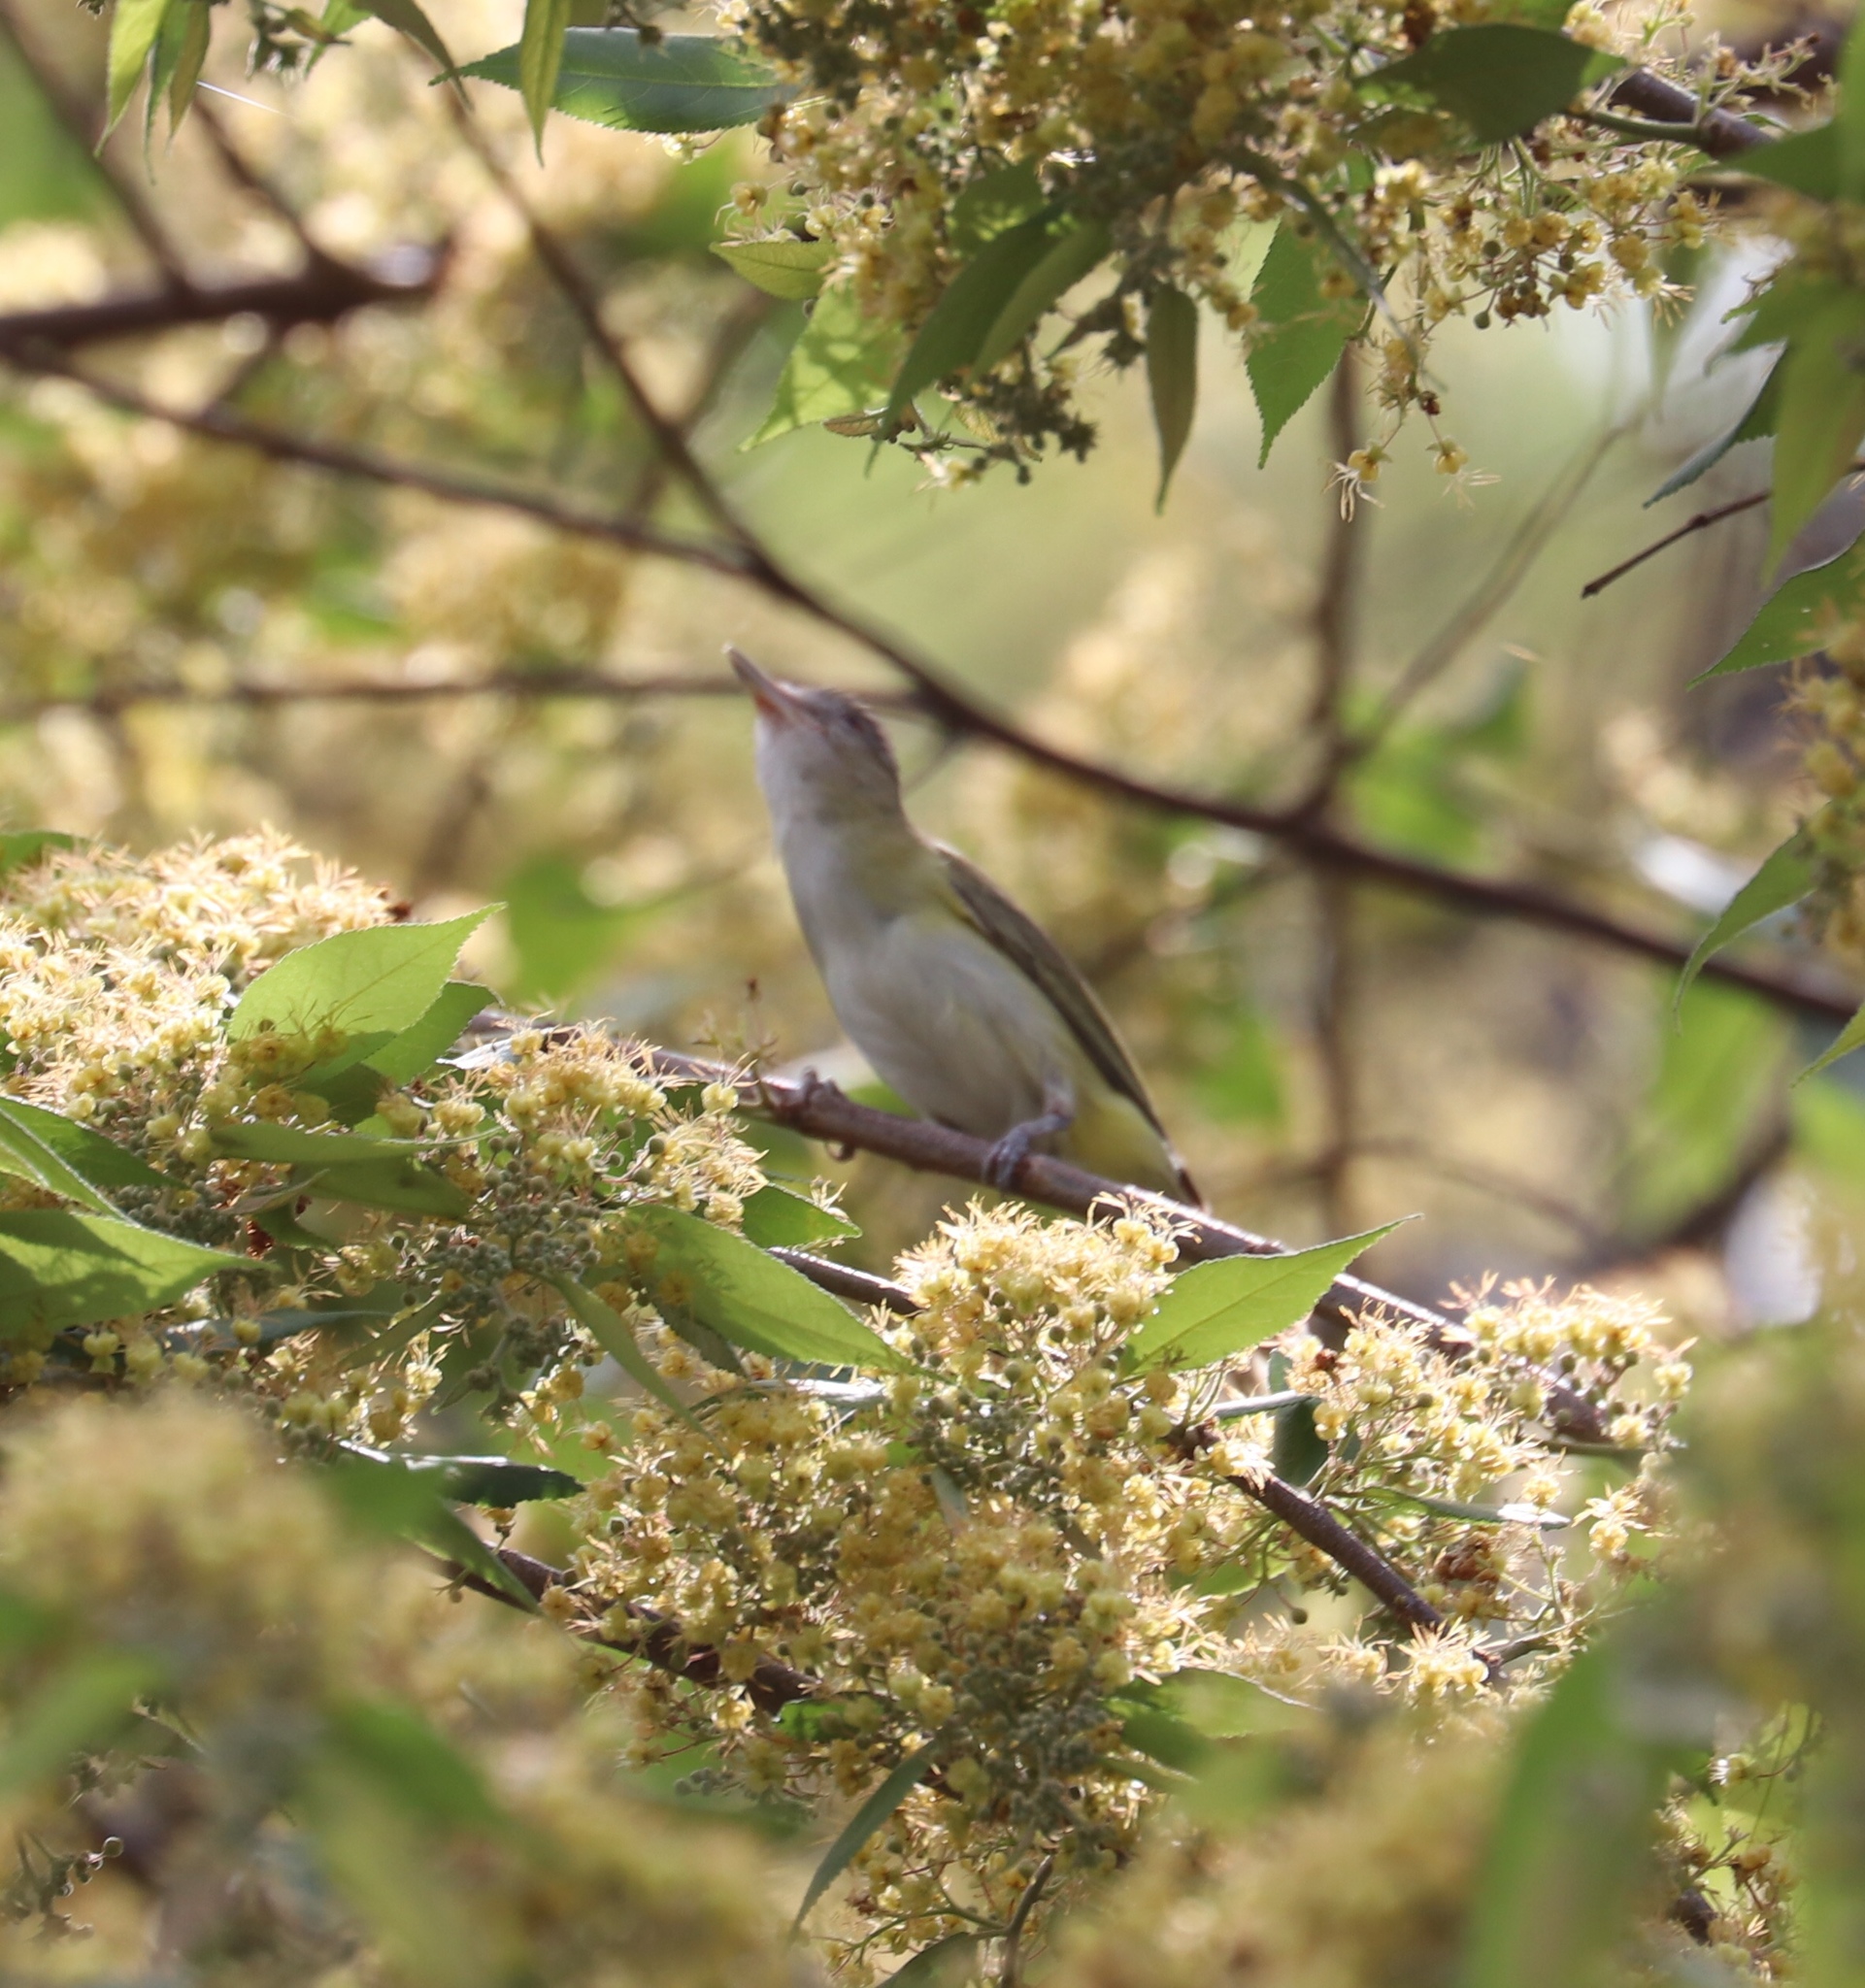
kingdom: Animalia
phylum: Chordata
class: Aves
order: Passeriformes
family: Vireonidae
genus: Vireo
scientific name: Vireo flavoviridis
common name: Yellow-green vireo
